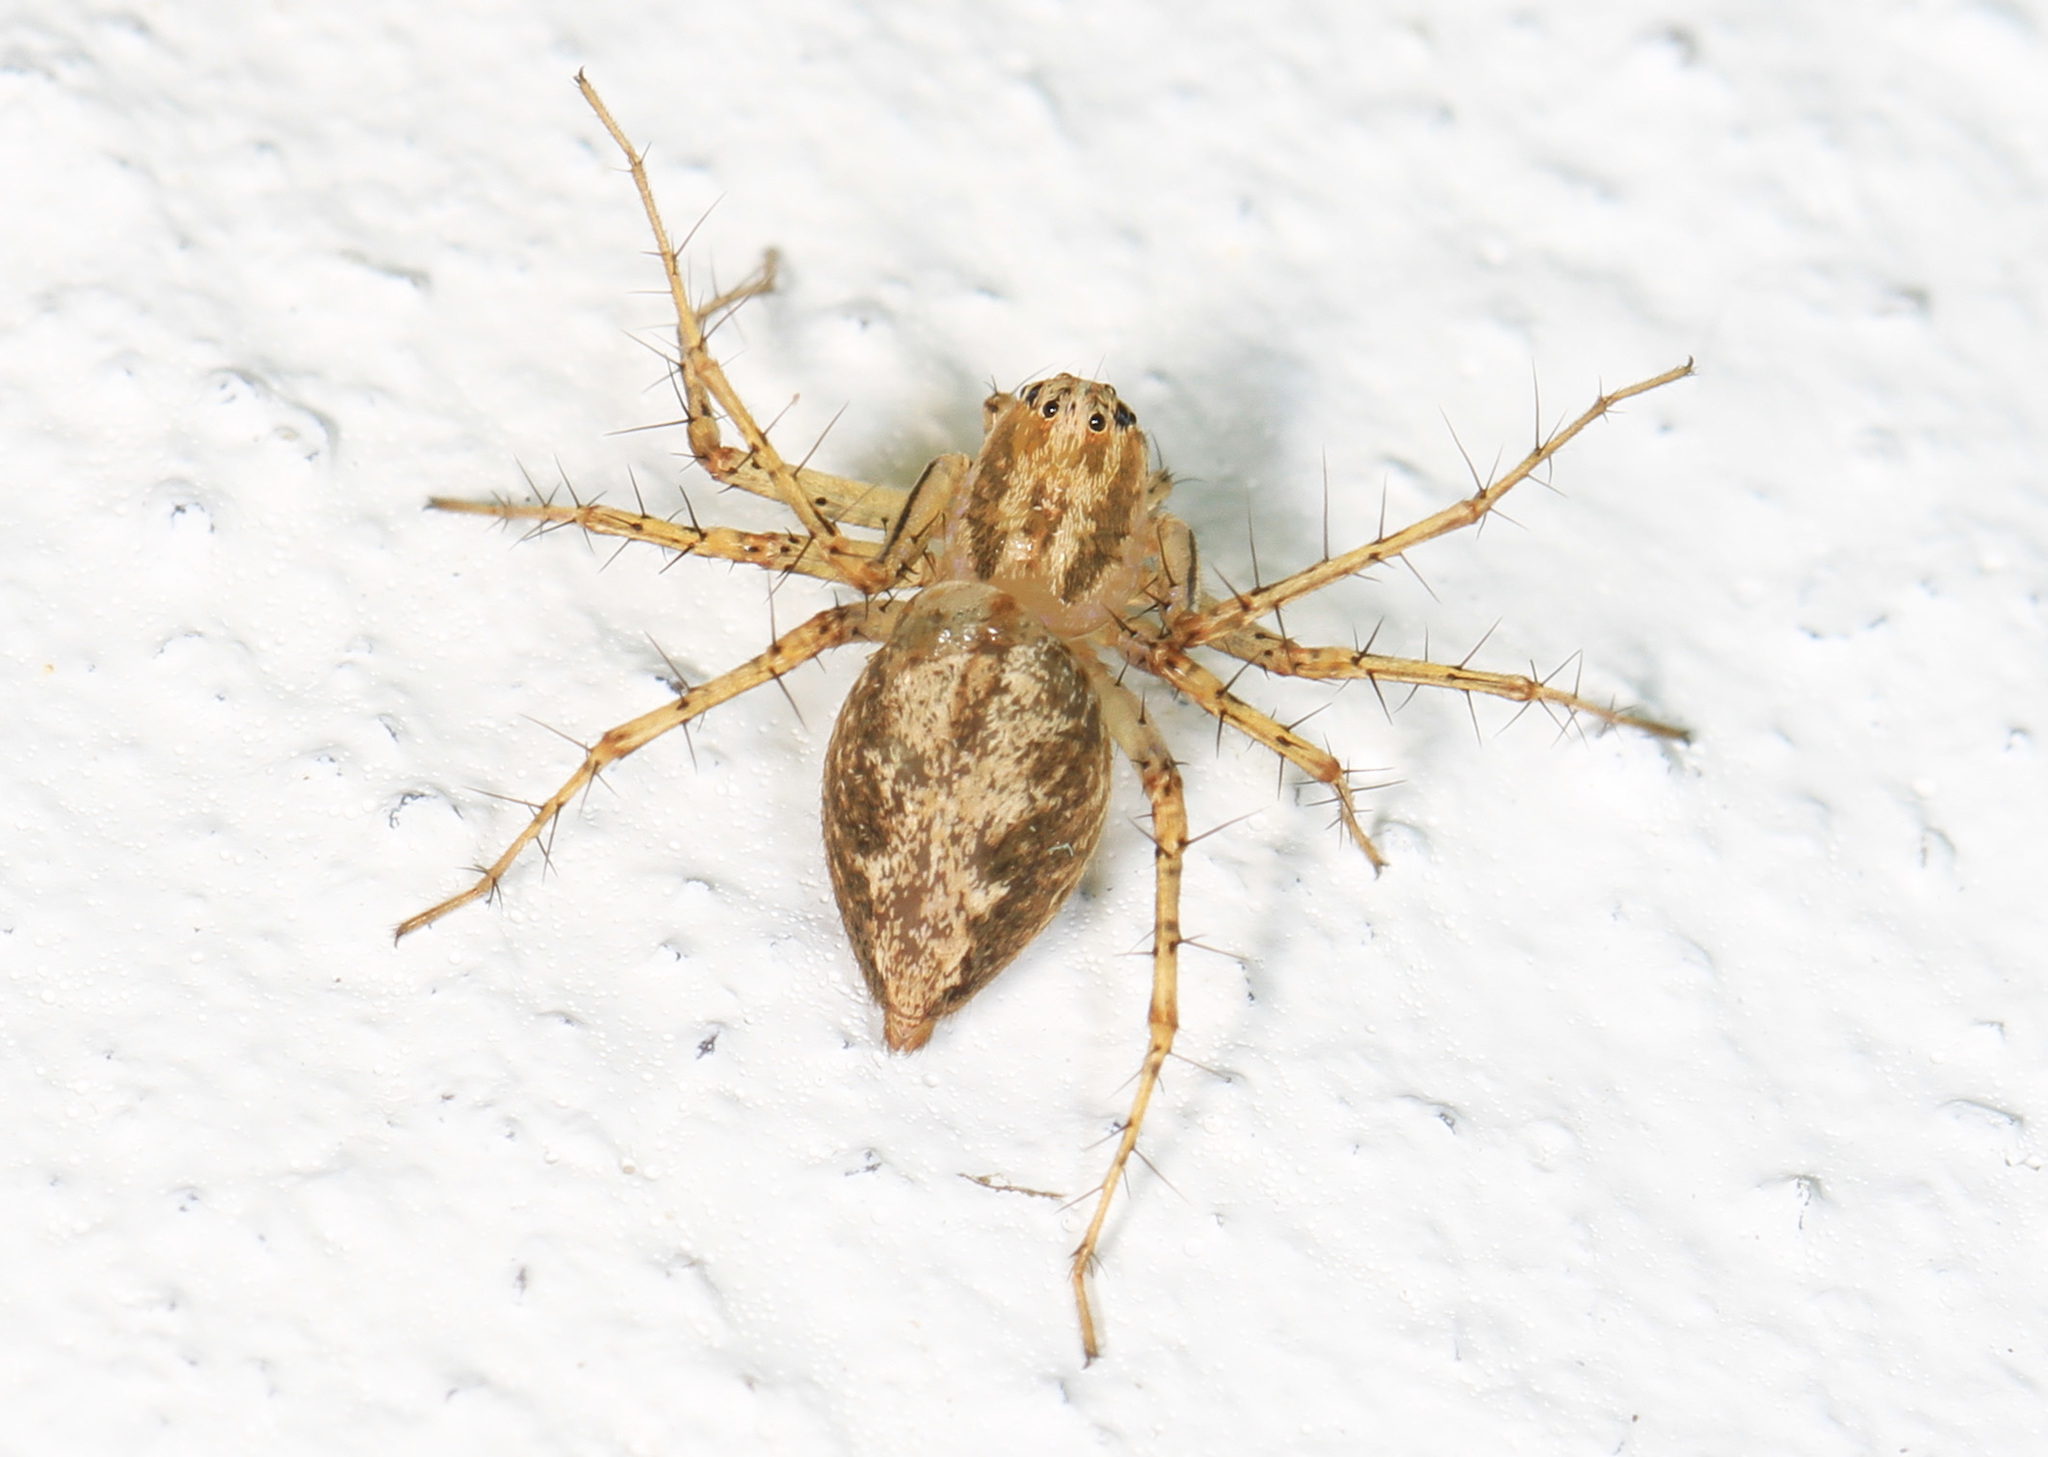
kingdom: Animalia
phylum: Arthropoda
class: Arachnida
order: Araneae
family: Oxyopidae
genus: Oxyopes
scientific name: Oxyopes aglossus
